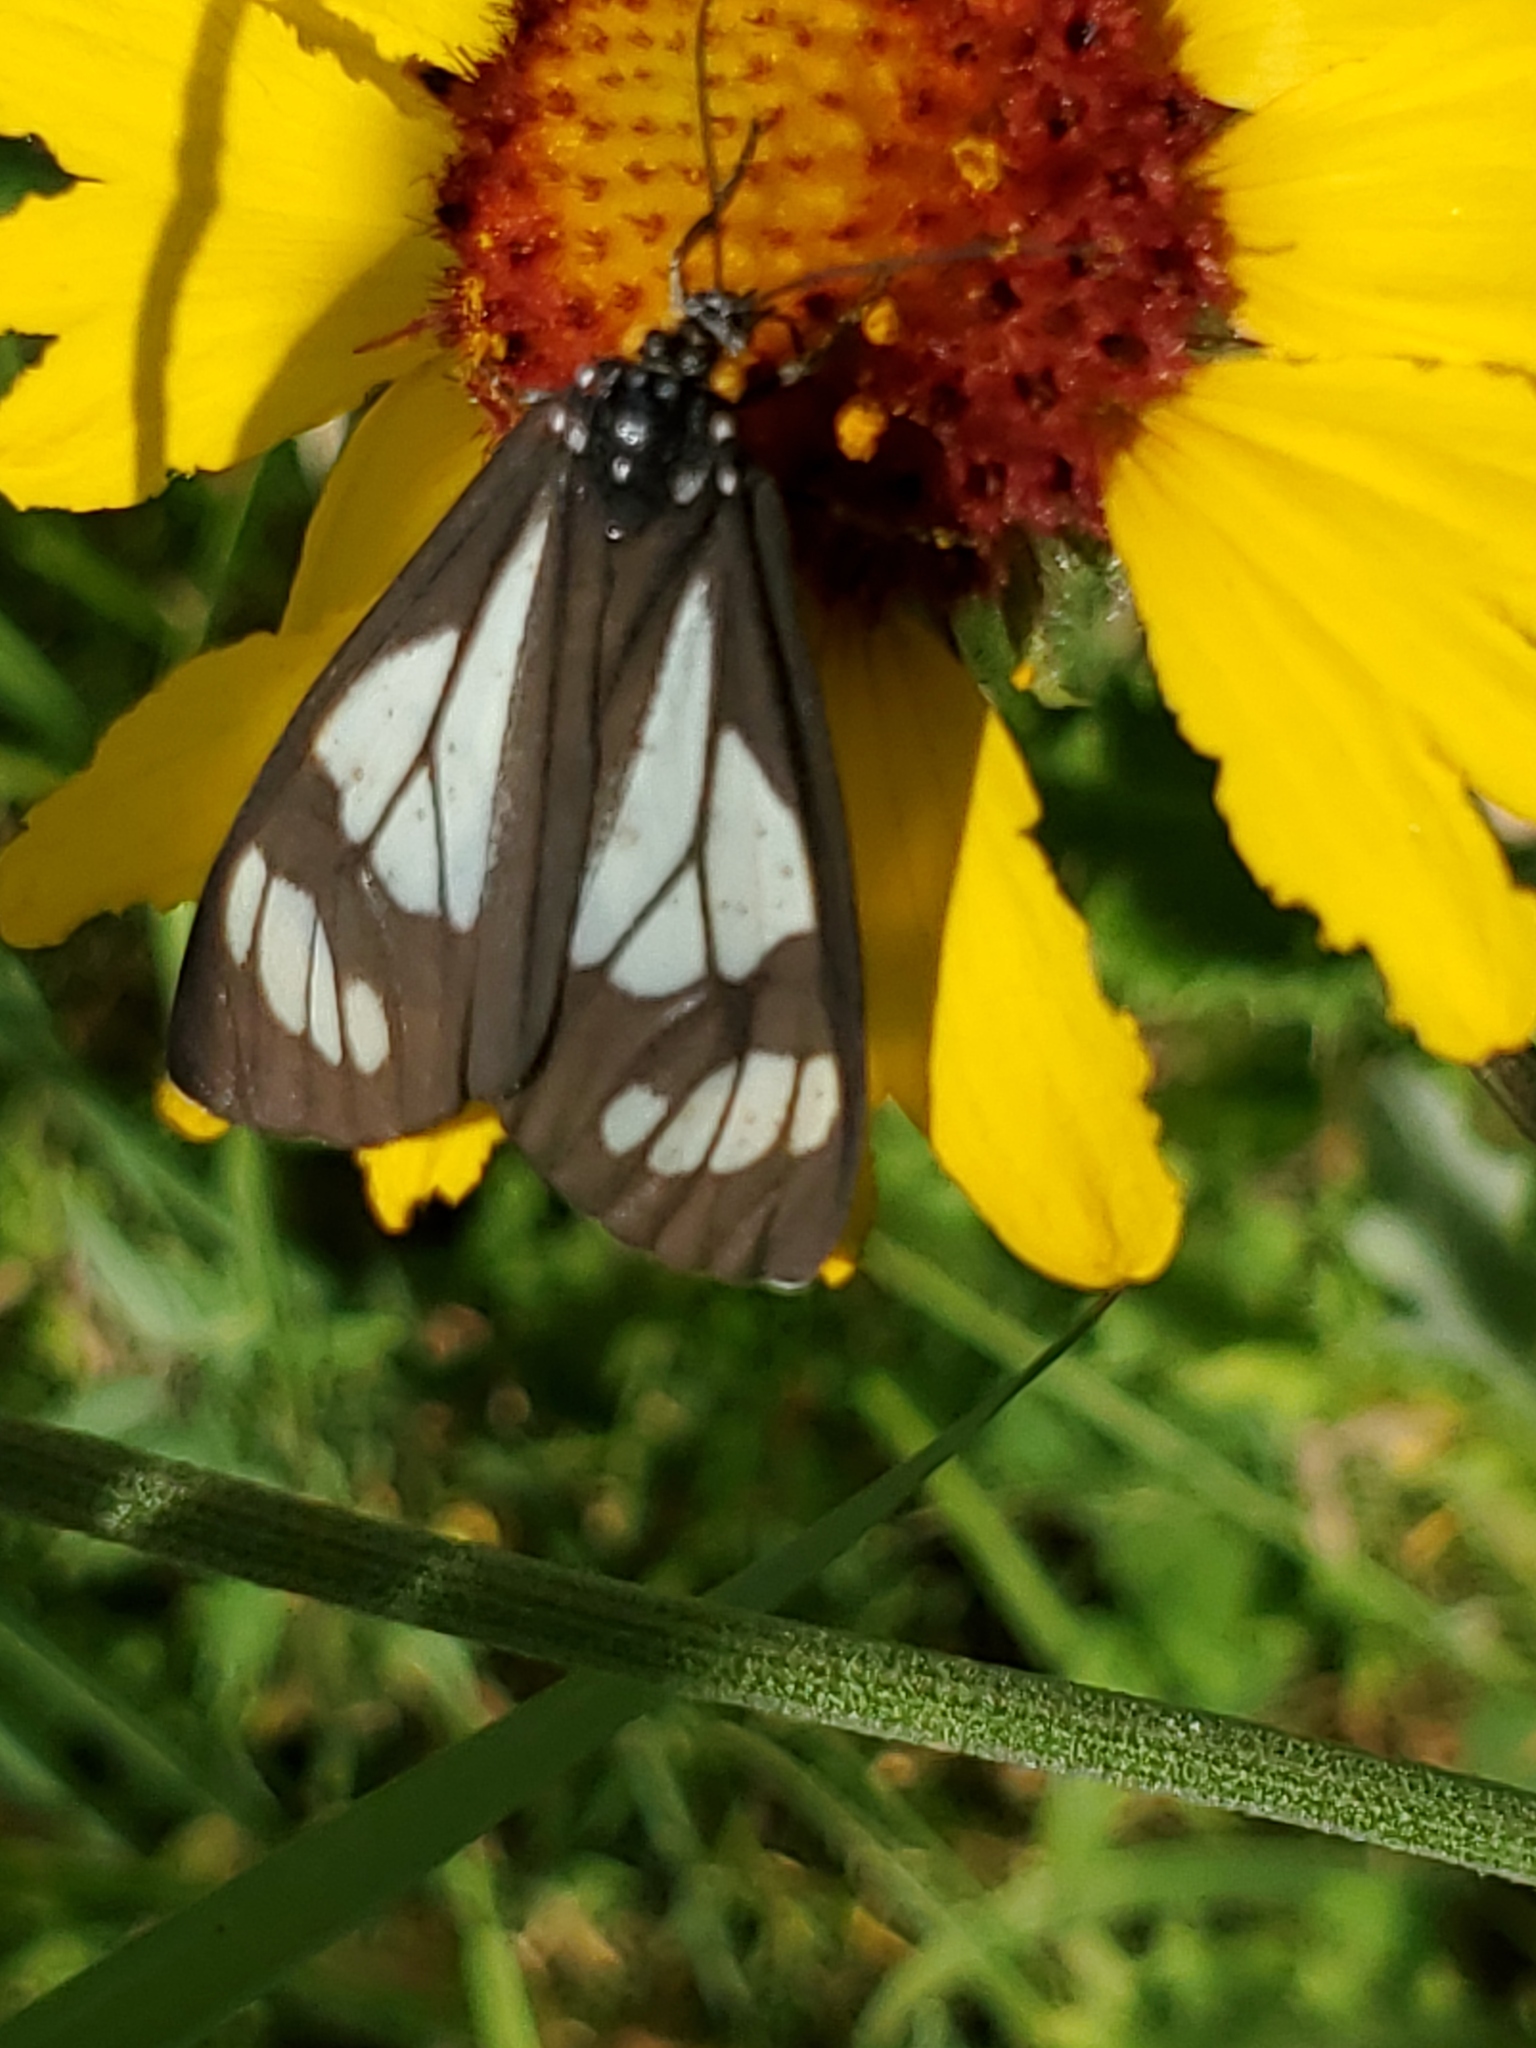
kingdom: Animalia
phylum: Arthropoda
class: Insecta
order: Lepidoptera
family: Erebidae
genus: Gnophaela
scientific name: Gnophaela vermiculata
